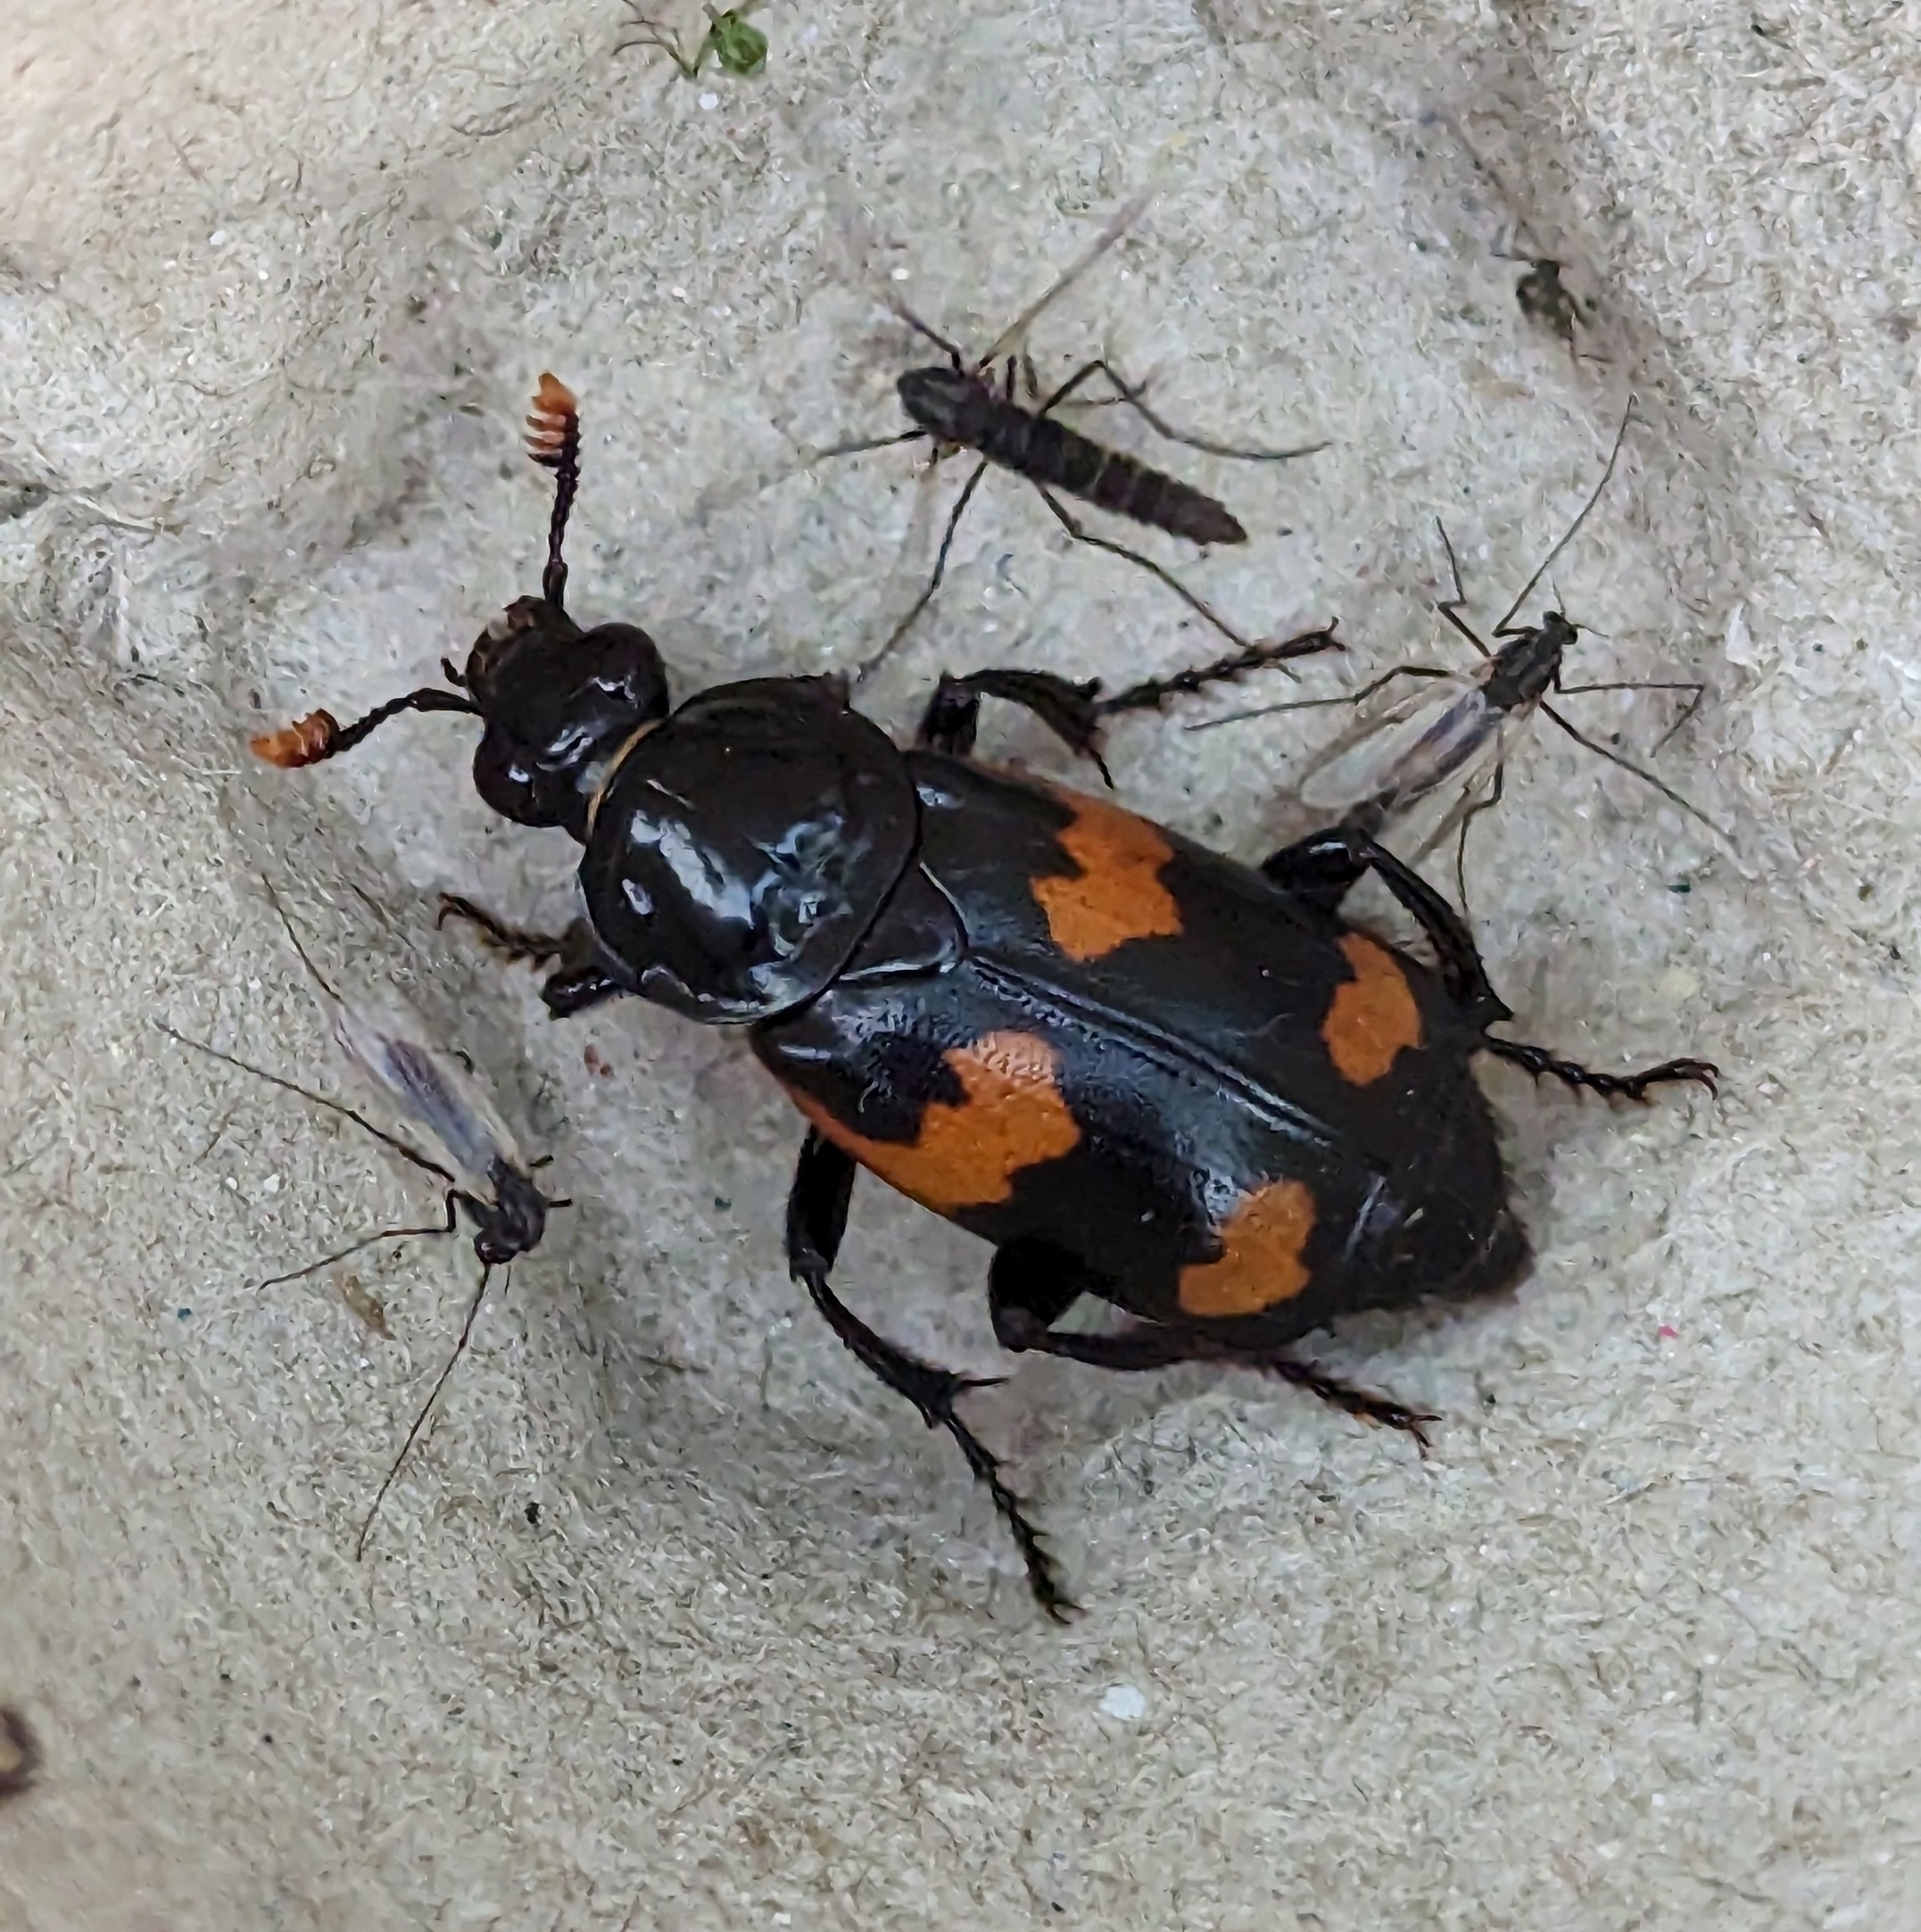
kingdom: Animalia
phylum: Arthropoda
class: Insecta
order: Coleoptera
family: Staphylinidae
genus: Nicrophorus
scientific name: Nicrophorus sayi
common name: Say's burying beetle
